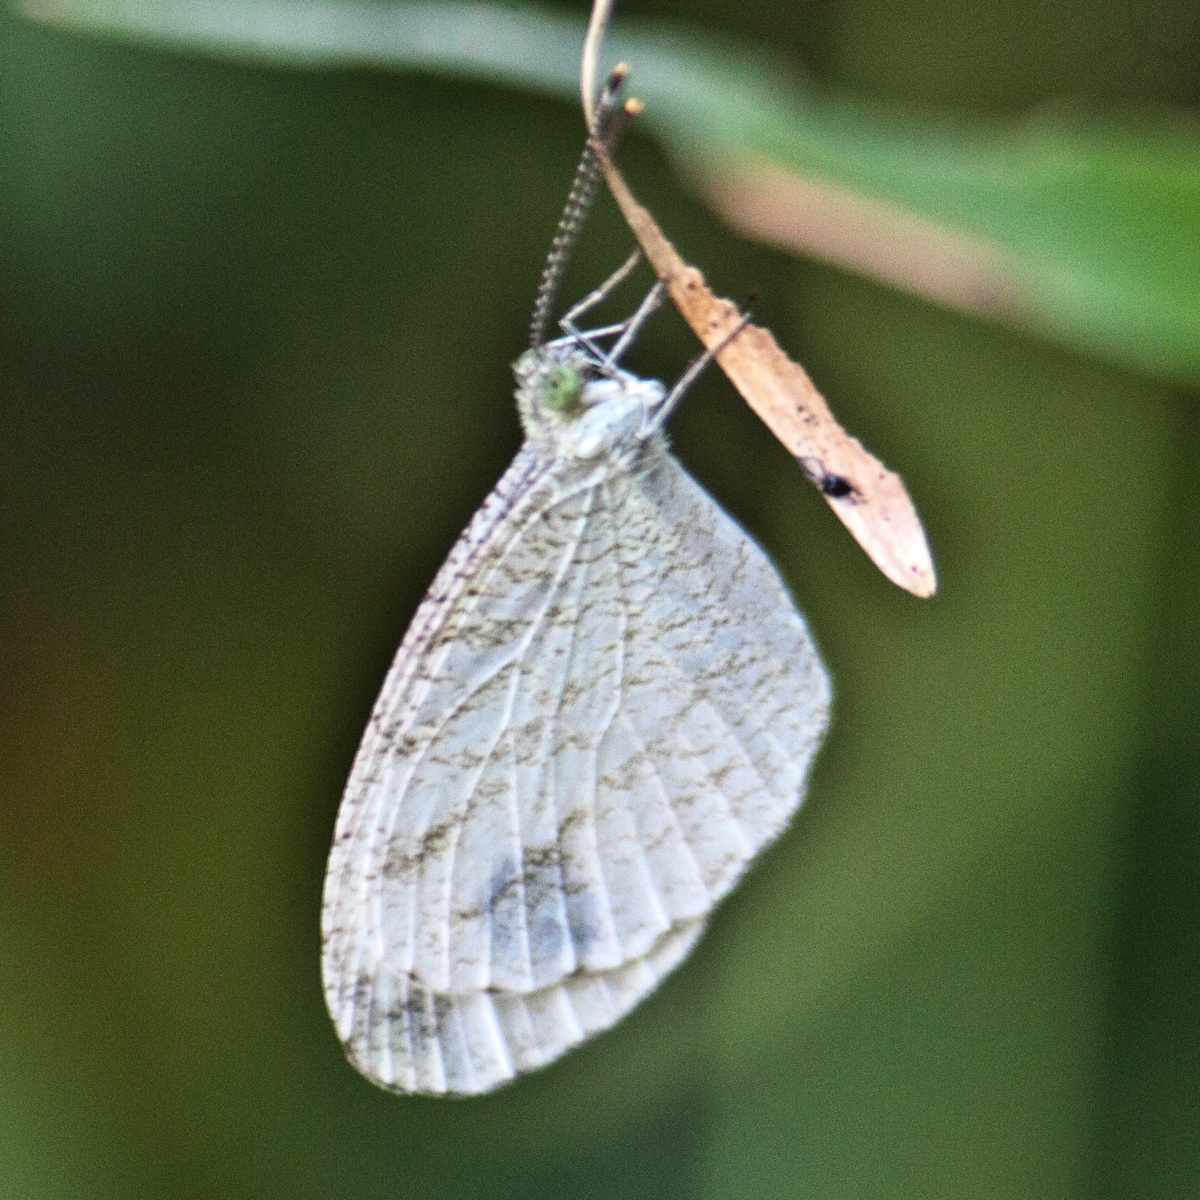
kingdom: Animalia
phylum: Arthropoda
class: Insecta
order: Lepidoptera
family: Pieridae
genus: Leptosia
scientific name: Leptosia nina
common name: Psyche
